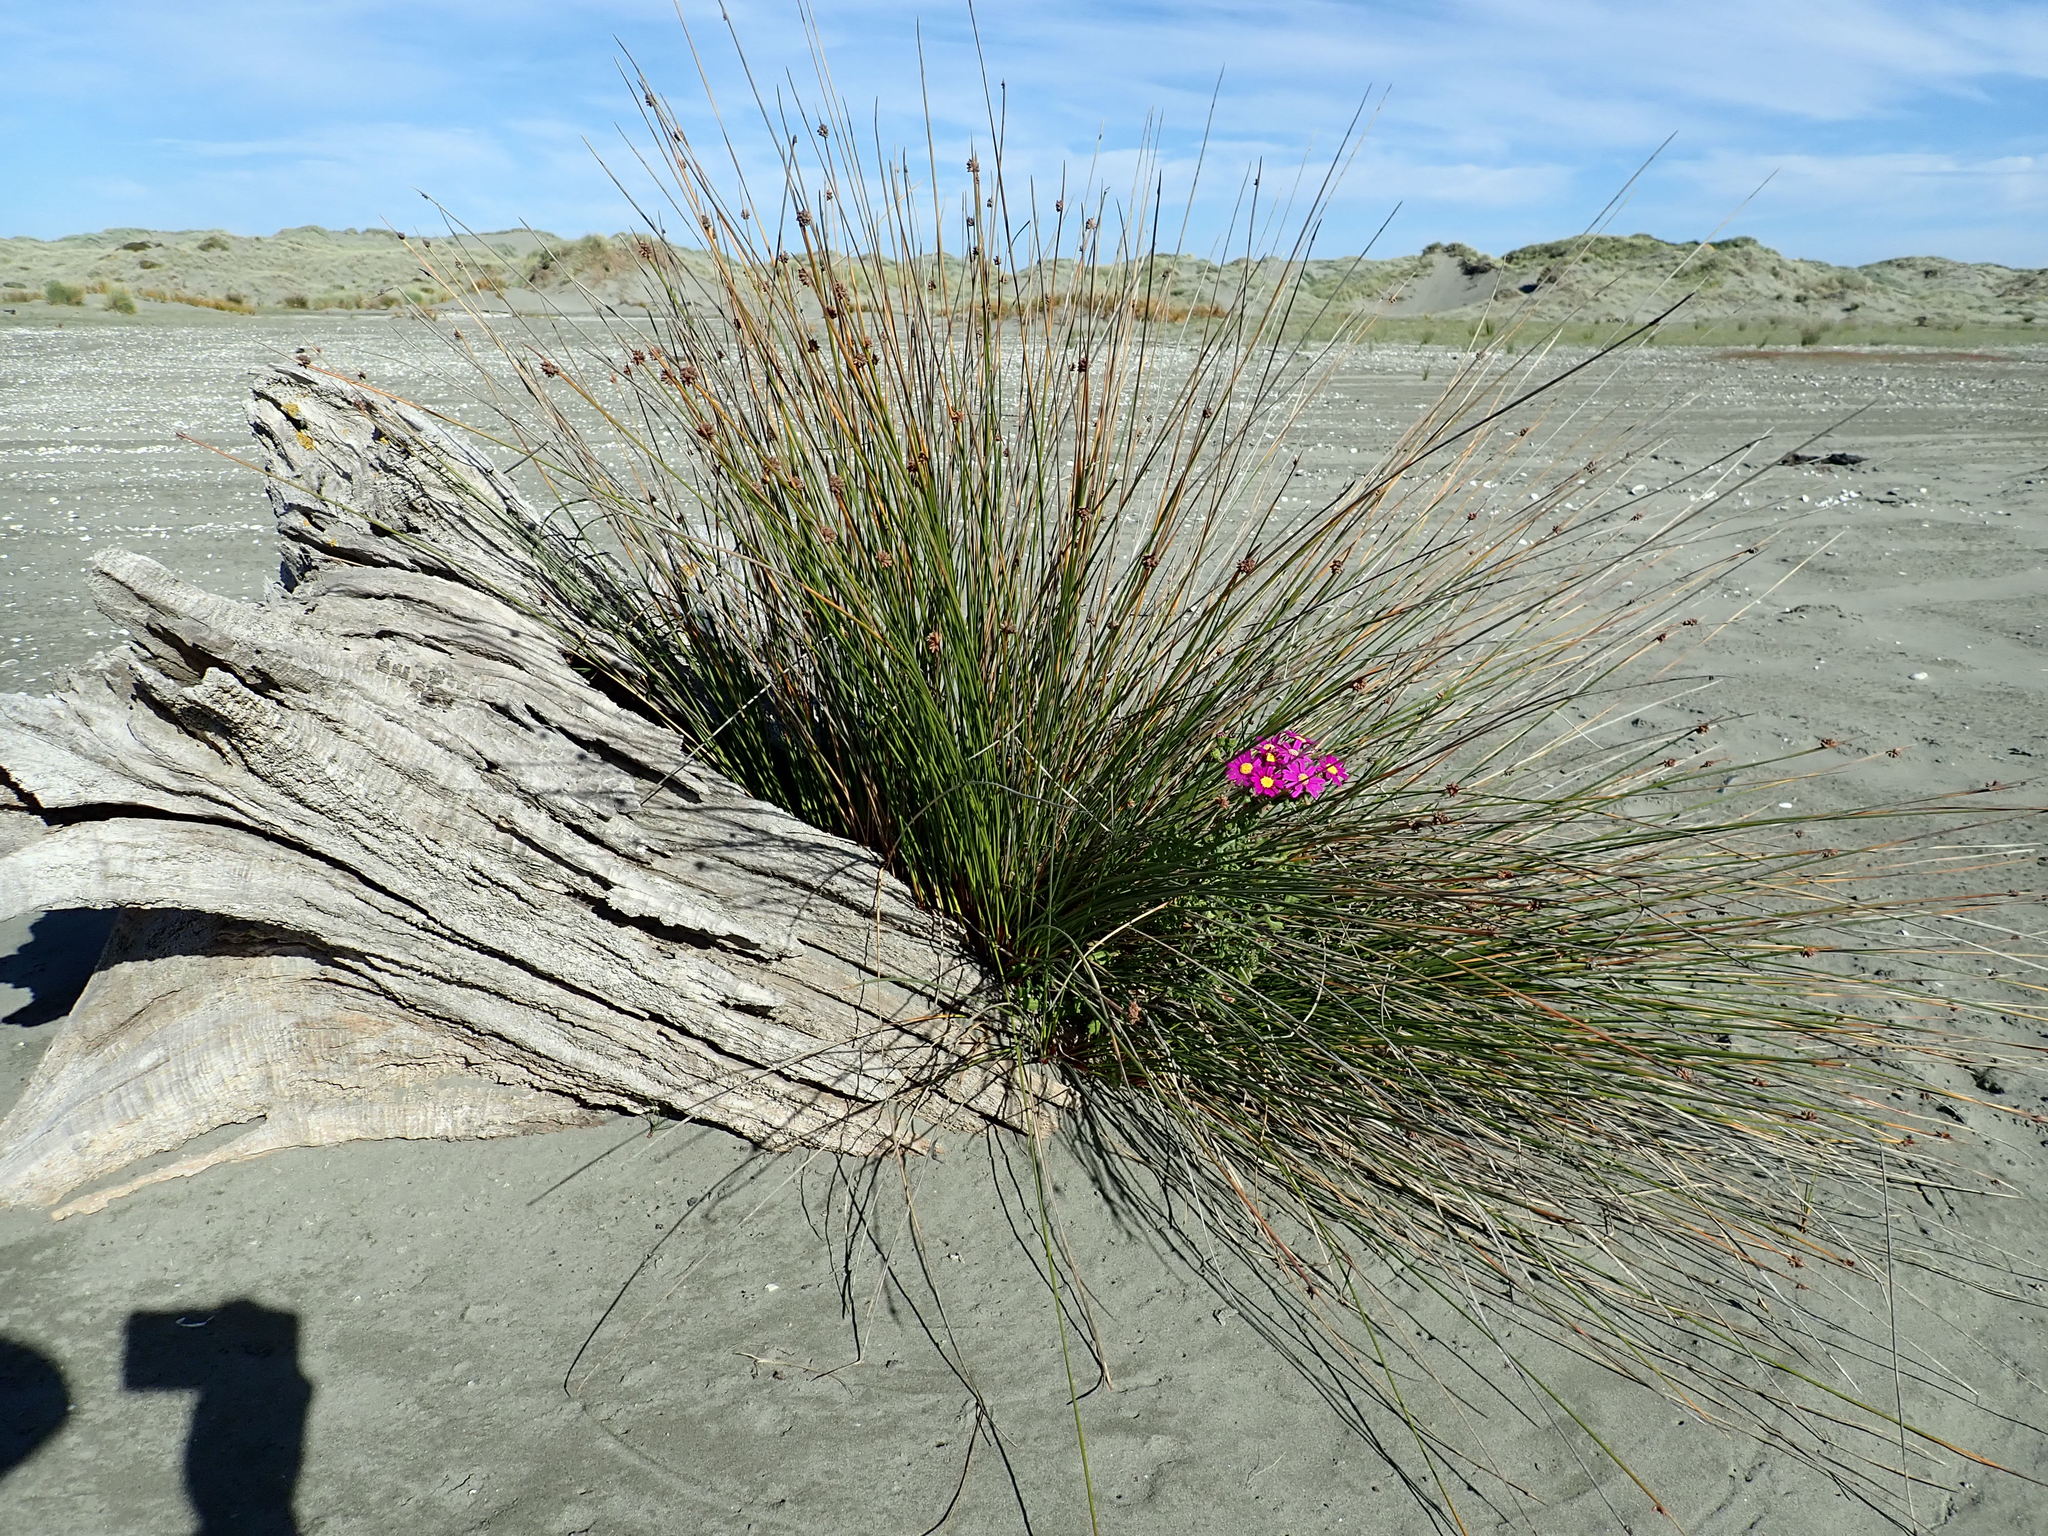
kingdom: Plantae
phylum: Tracheophyta
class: Magnoliopsida
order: Asterales
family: Asteraceae
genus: Senecio
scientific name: Senecio elegans
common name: Purple groundsel
